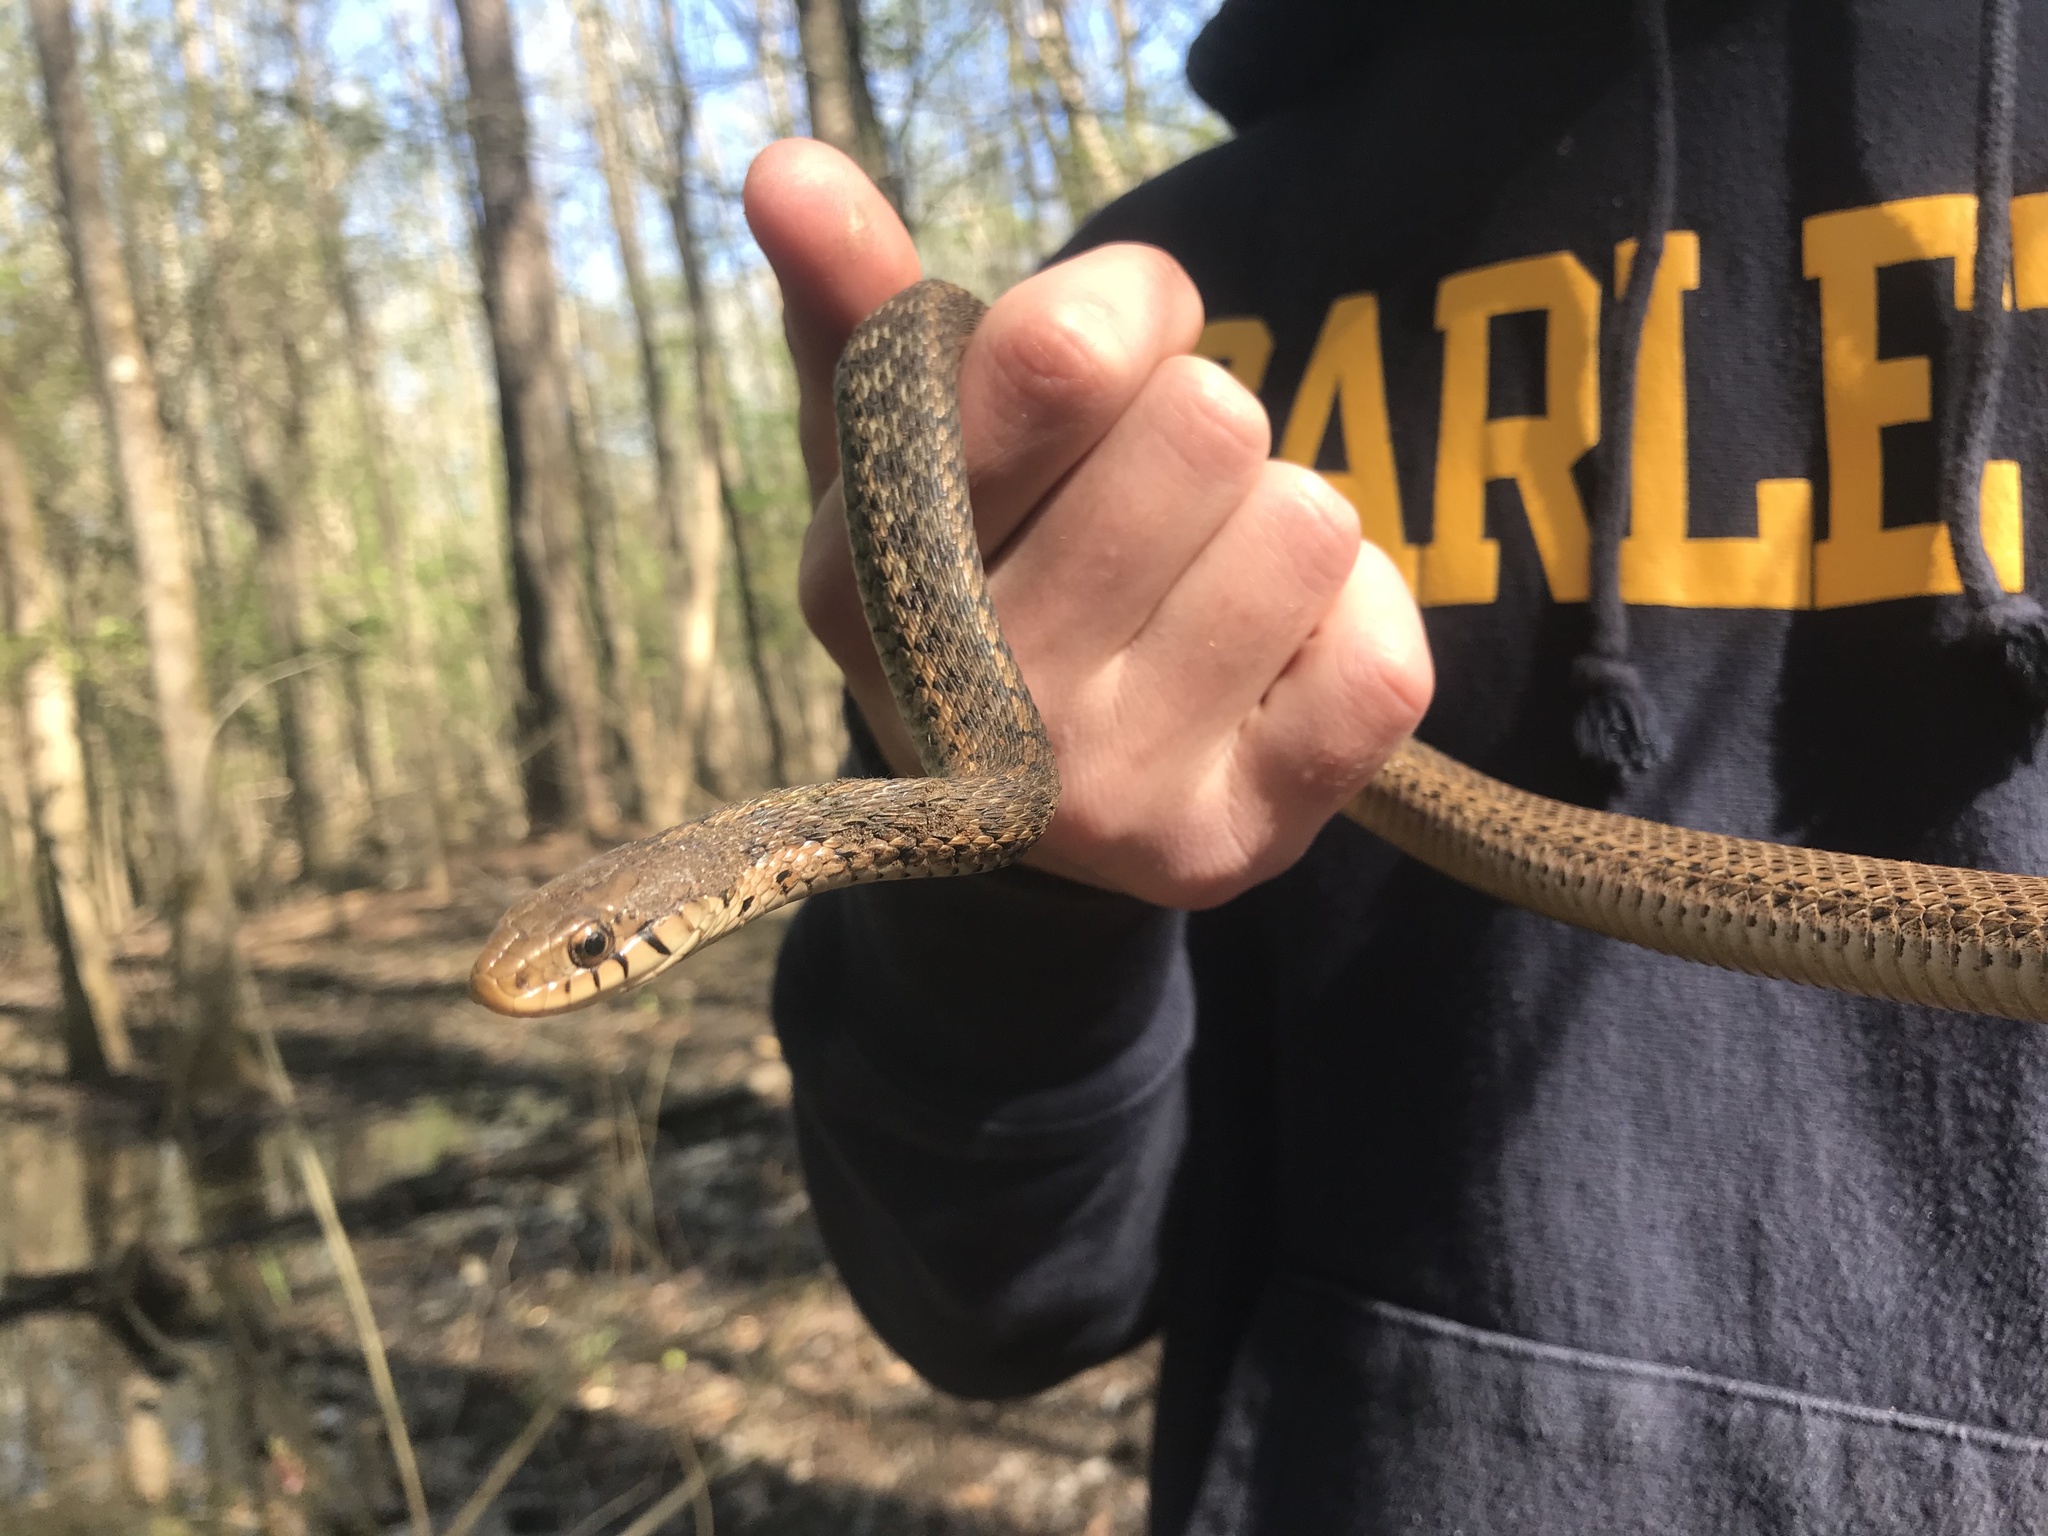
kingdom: Animalia
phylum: Chordata
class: Squamata
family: Colubridae
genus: Thamnophis
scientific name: Thamnophis sirtalis
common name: Common garter snake
